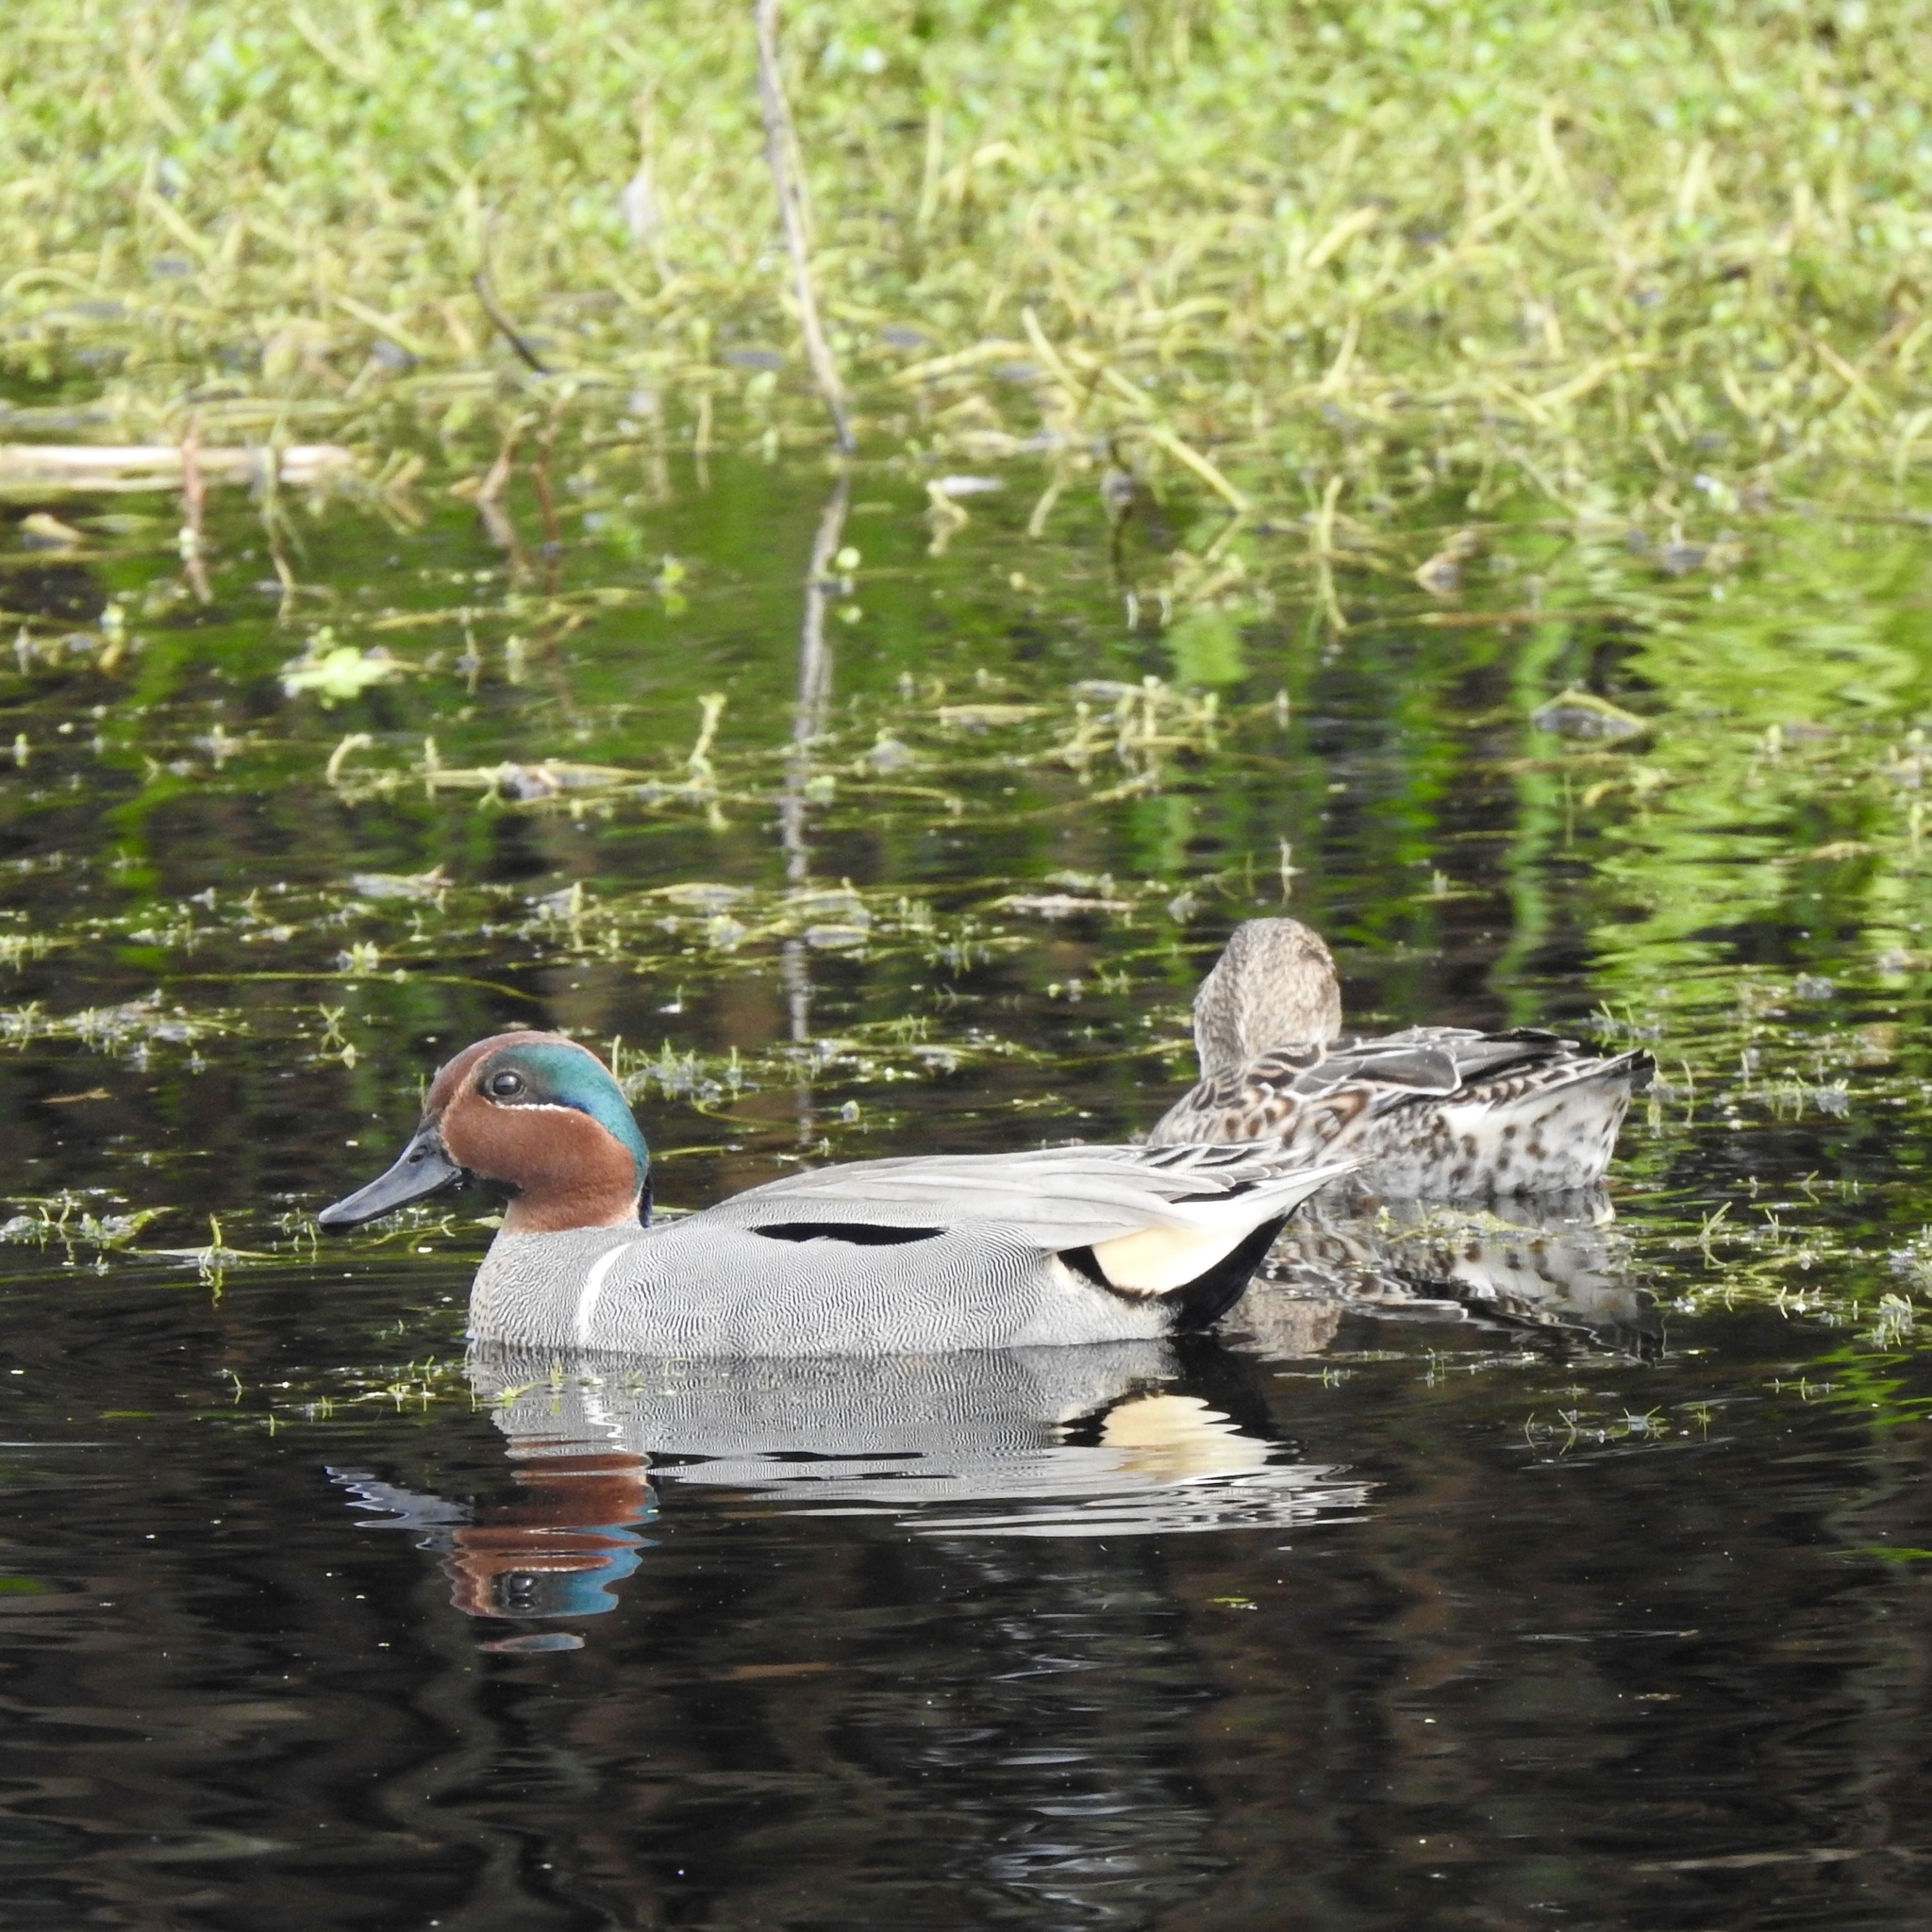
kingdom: Animalia
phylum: Chordata
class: Aves
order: Anseriformes
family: Anatidae
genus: Anas
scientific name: Anas crecca
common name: Eurasian teal
